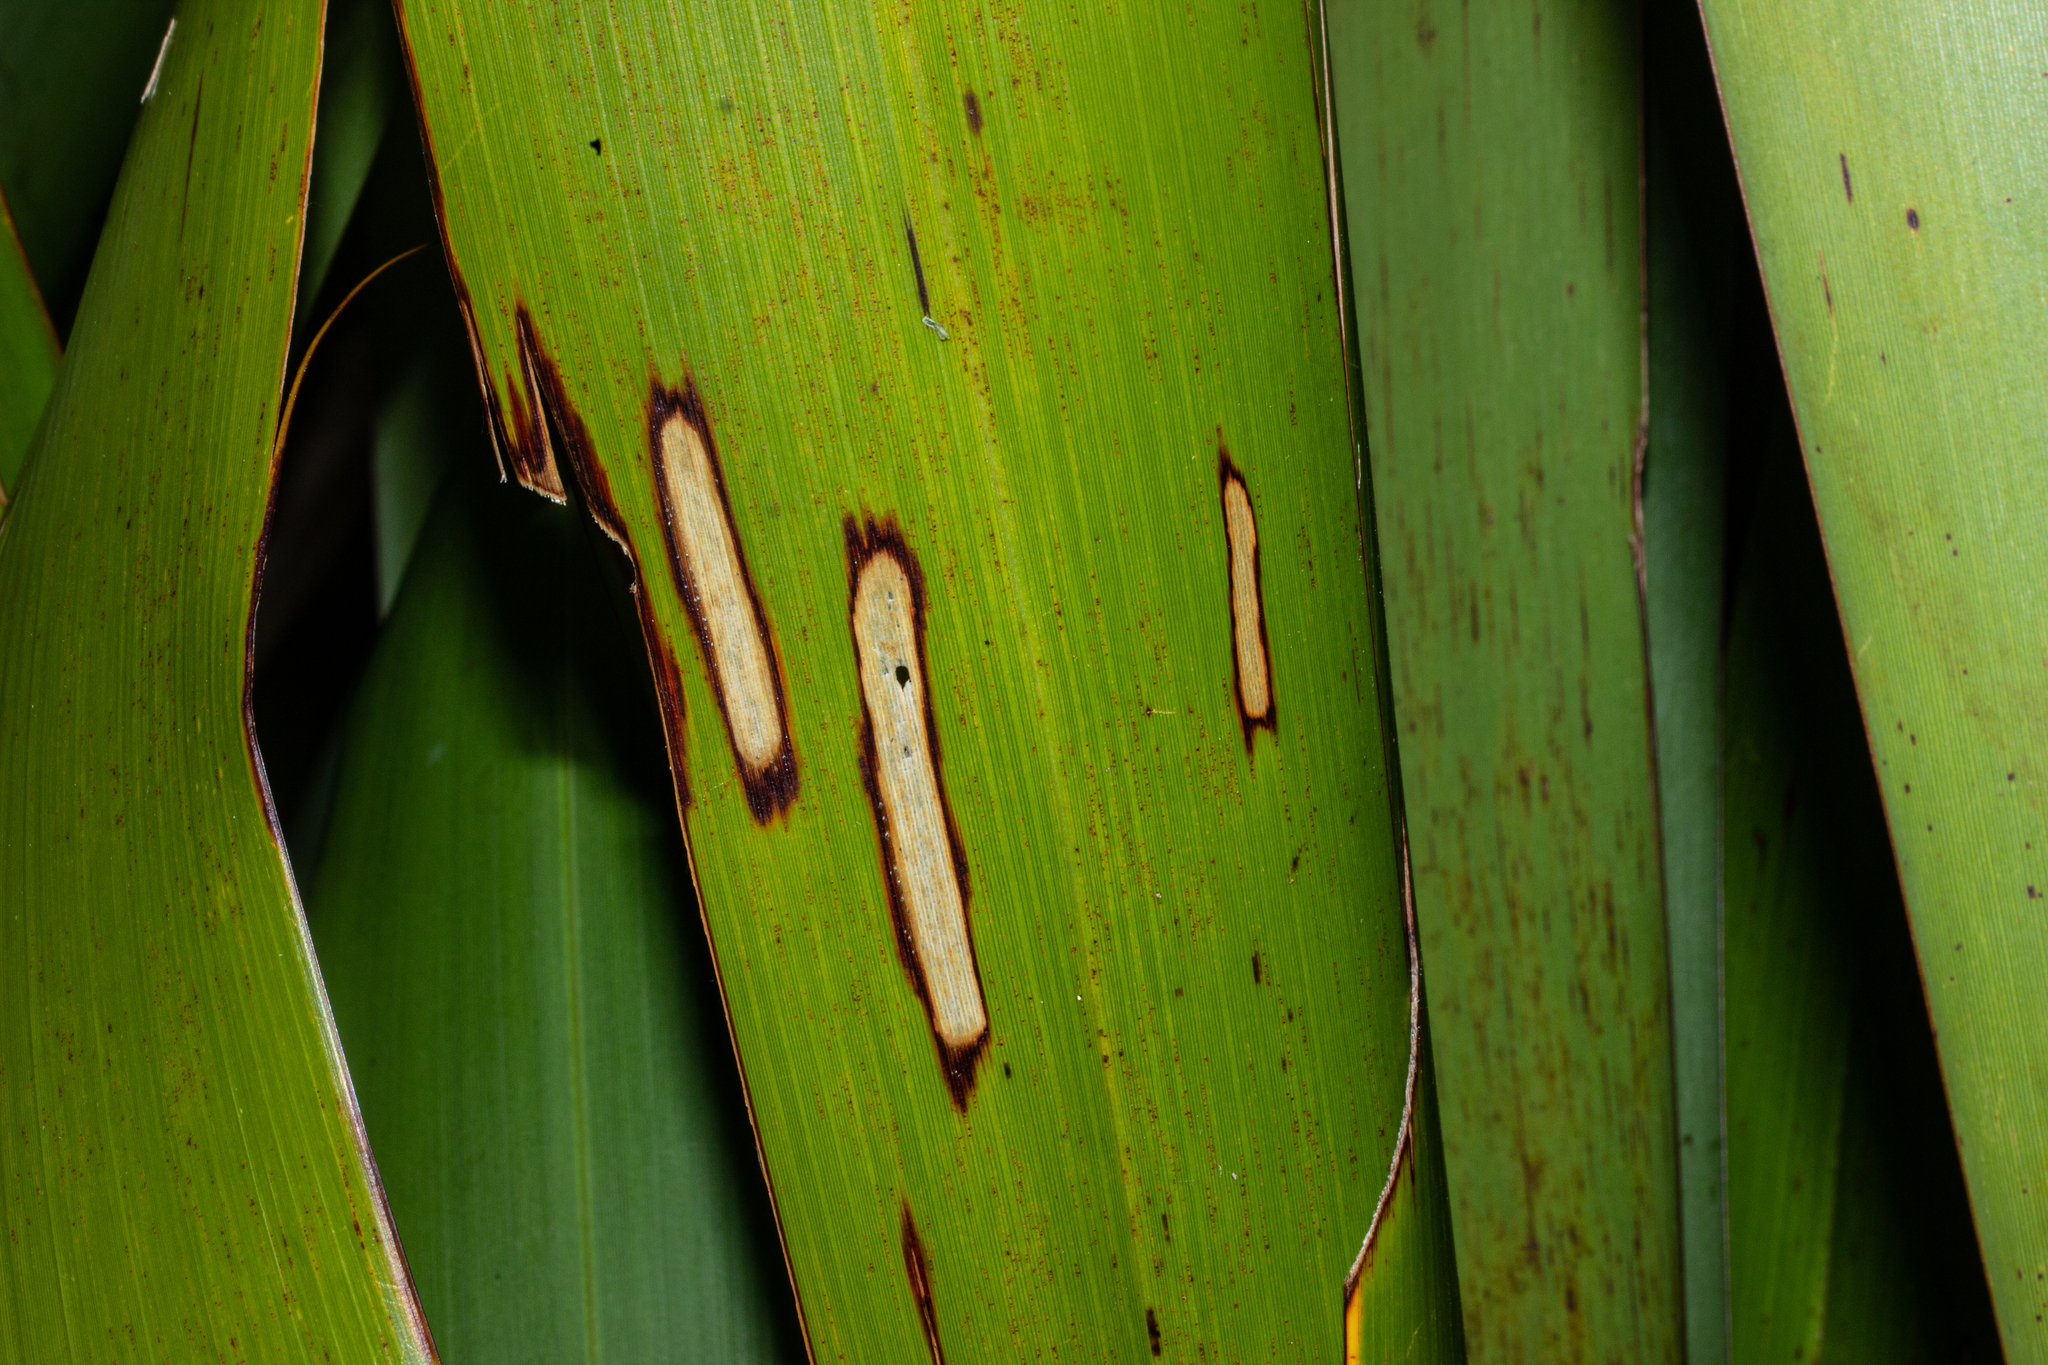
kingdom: Animalia
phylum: Arthropoda
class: Insecta
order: Lepidoptera
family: Geometridae
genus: Orthoclydon
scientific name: Orthoclydon praefectata
